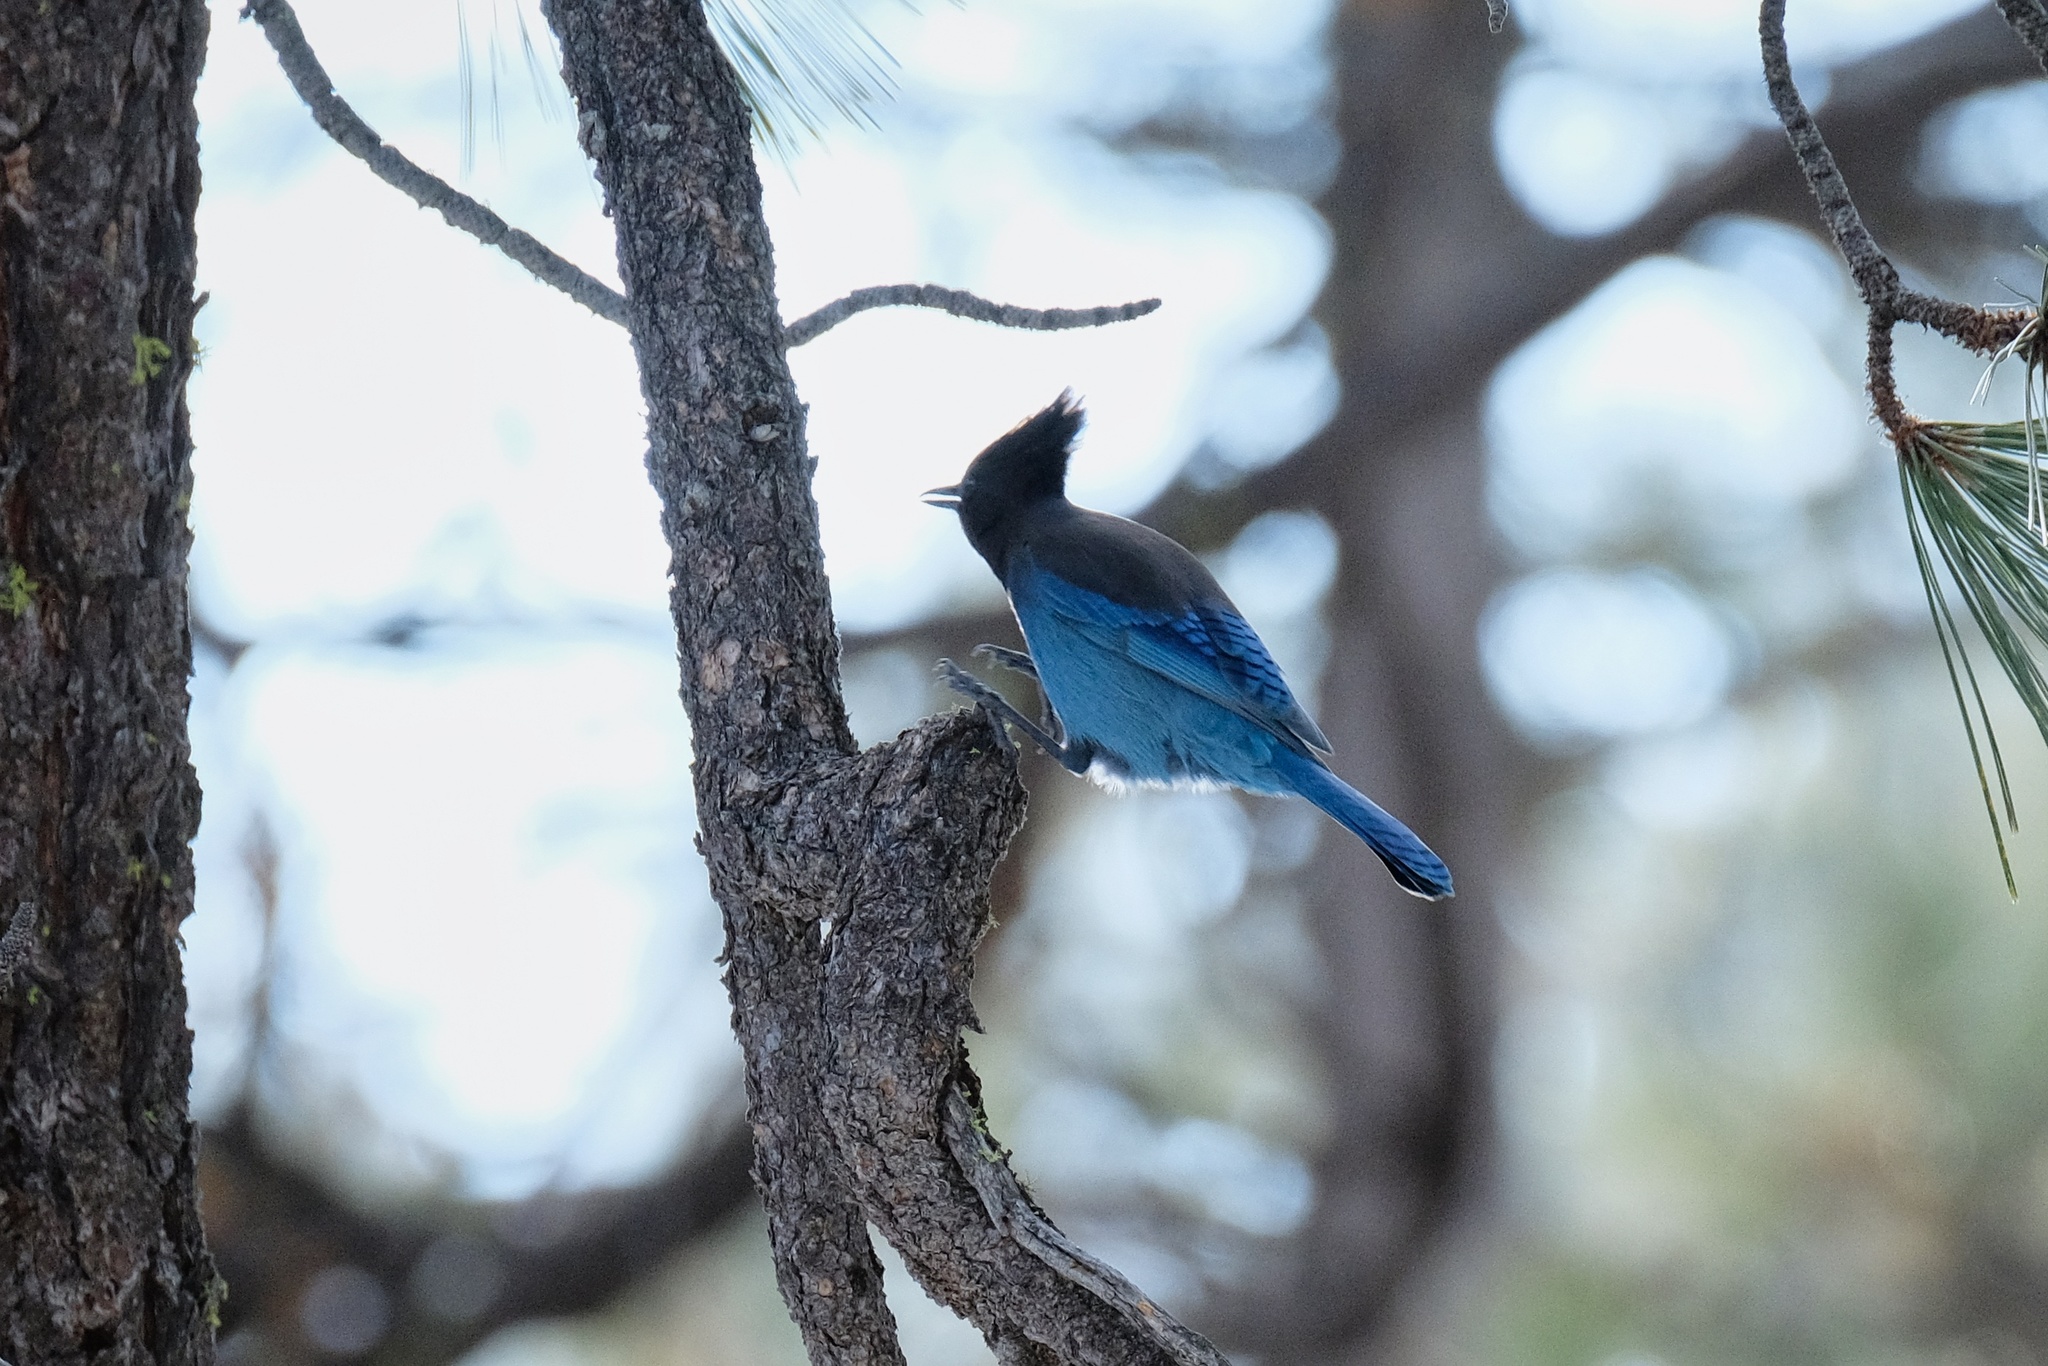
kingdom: Animalia
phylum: Chordata
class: Aves
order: Passeriformes
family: Corvidae
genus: Cyanocitta
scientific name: Cyanocitta stelleri
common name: Steller's jay
